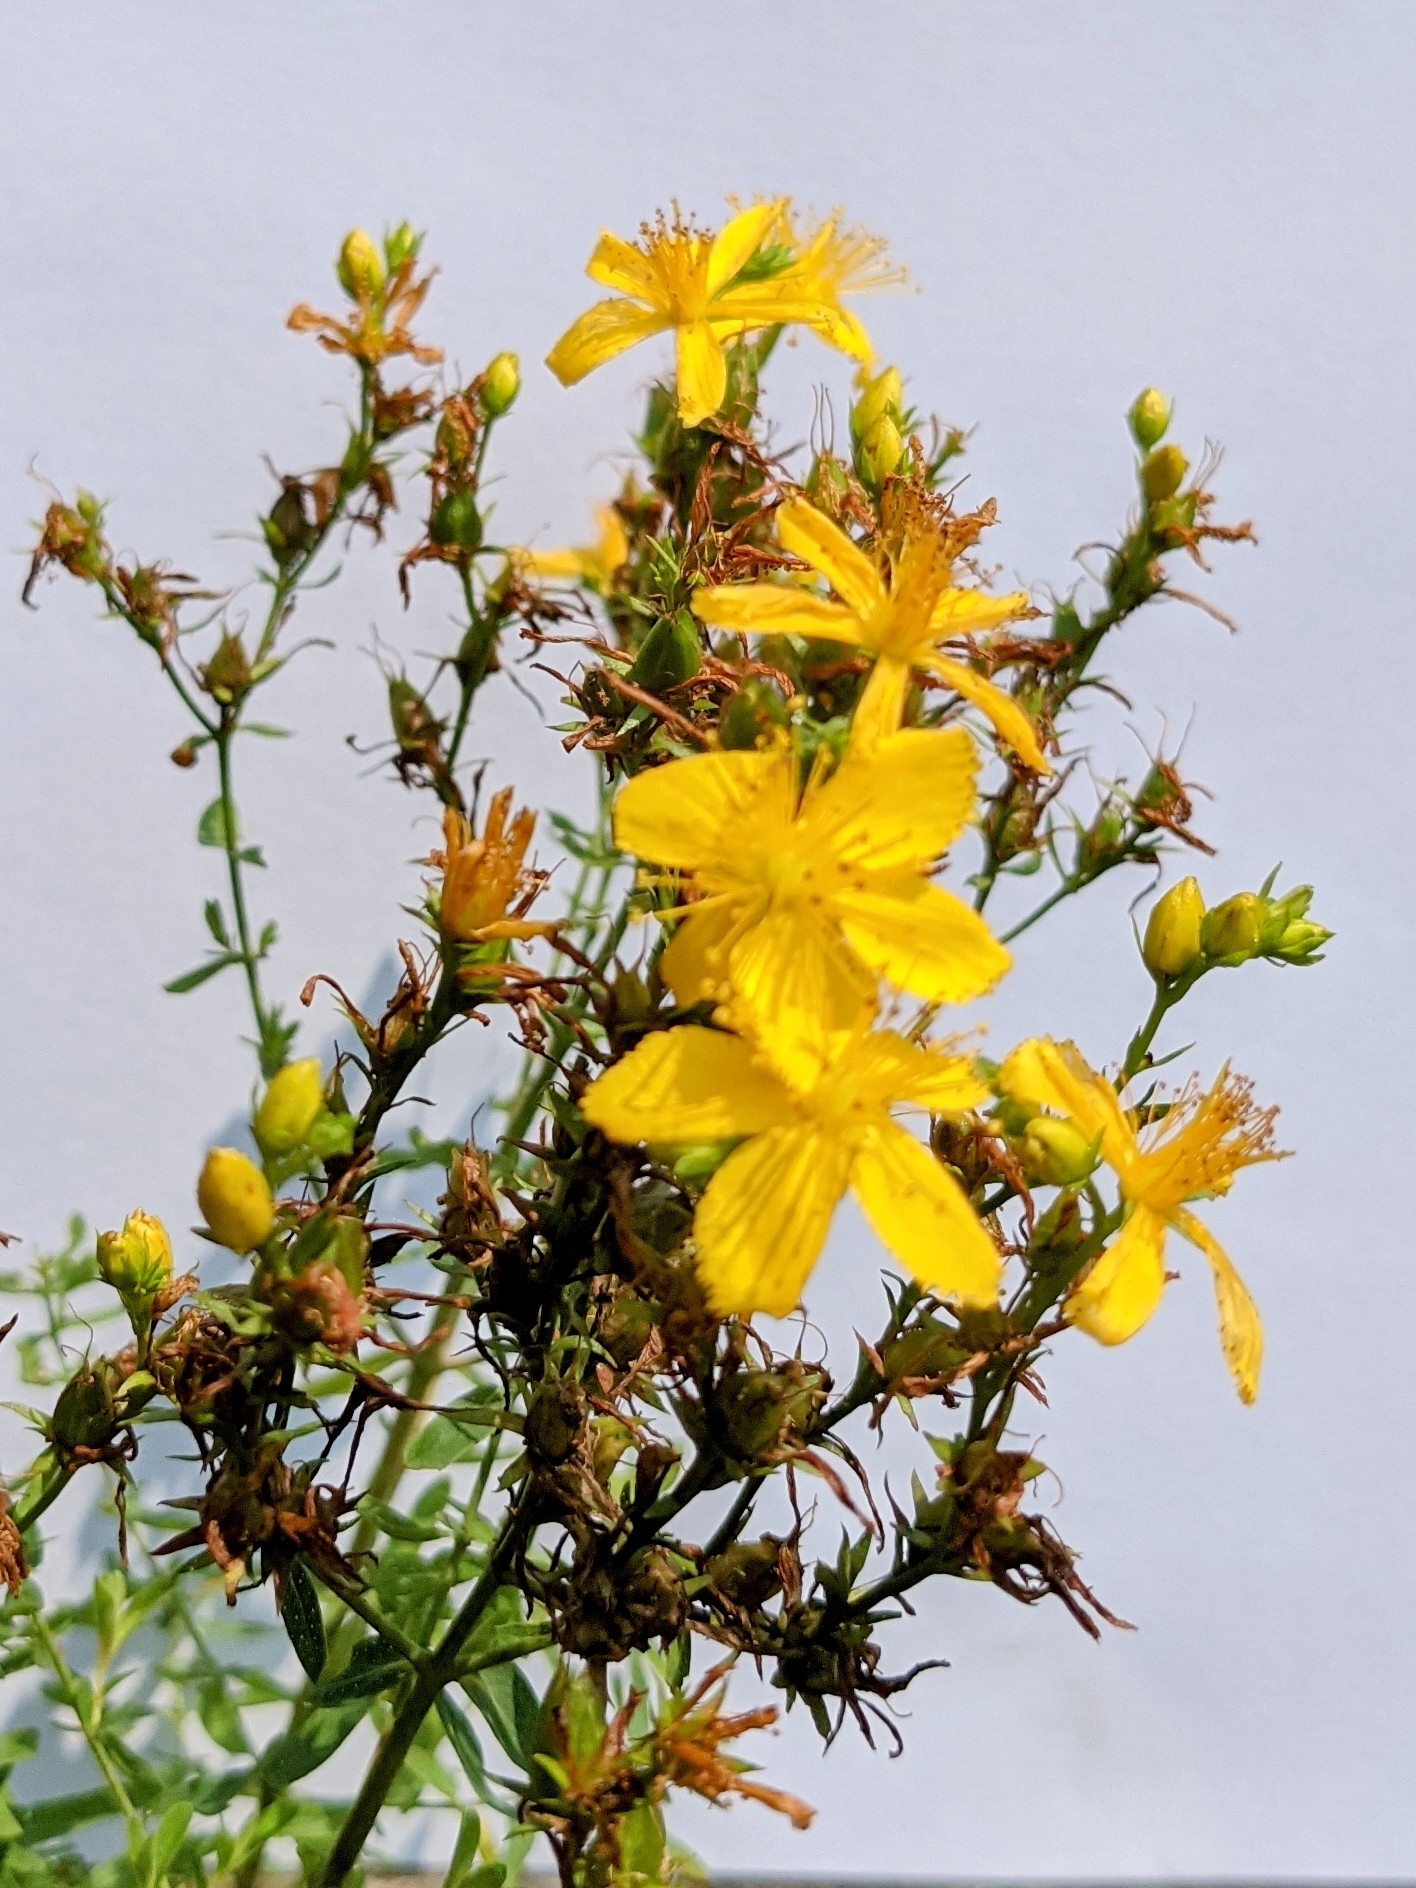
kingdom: Plantae
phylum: Tracheophyta
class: Magnoliopsida
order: Malpighiales
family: Hypericaceae
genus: Hypericum
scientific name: Hypericum perforatum
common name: Common st. johnswort
